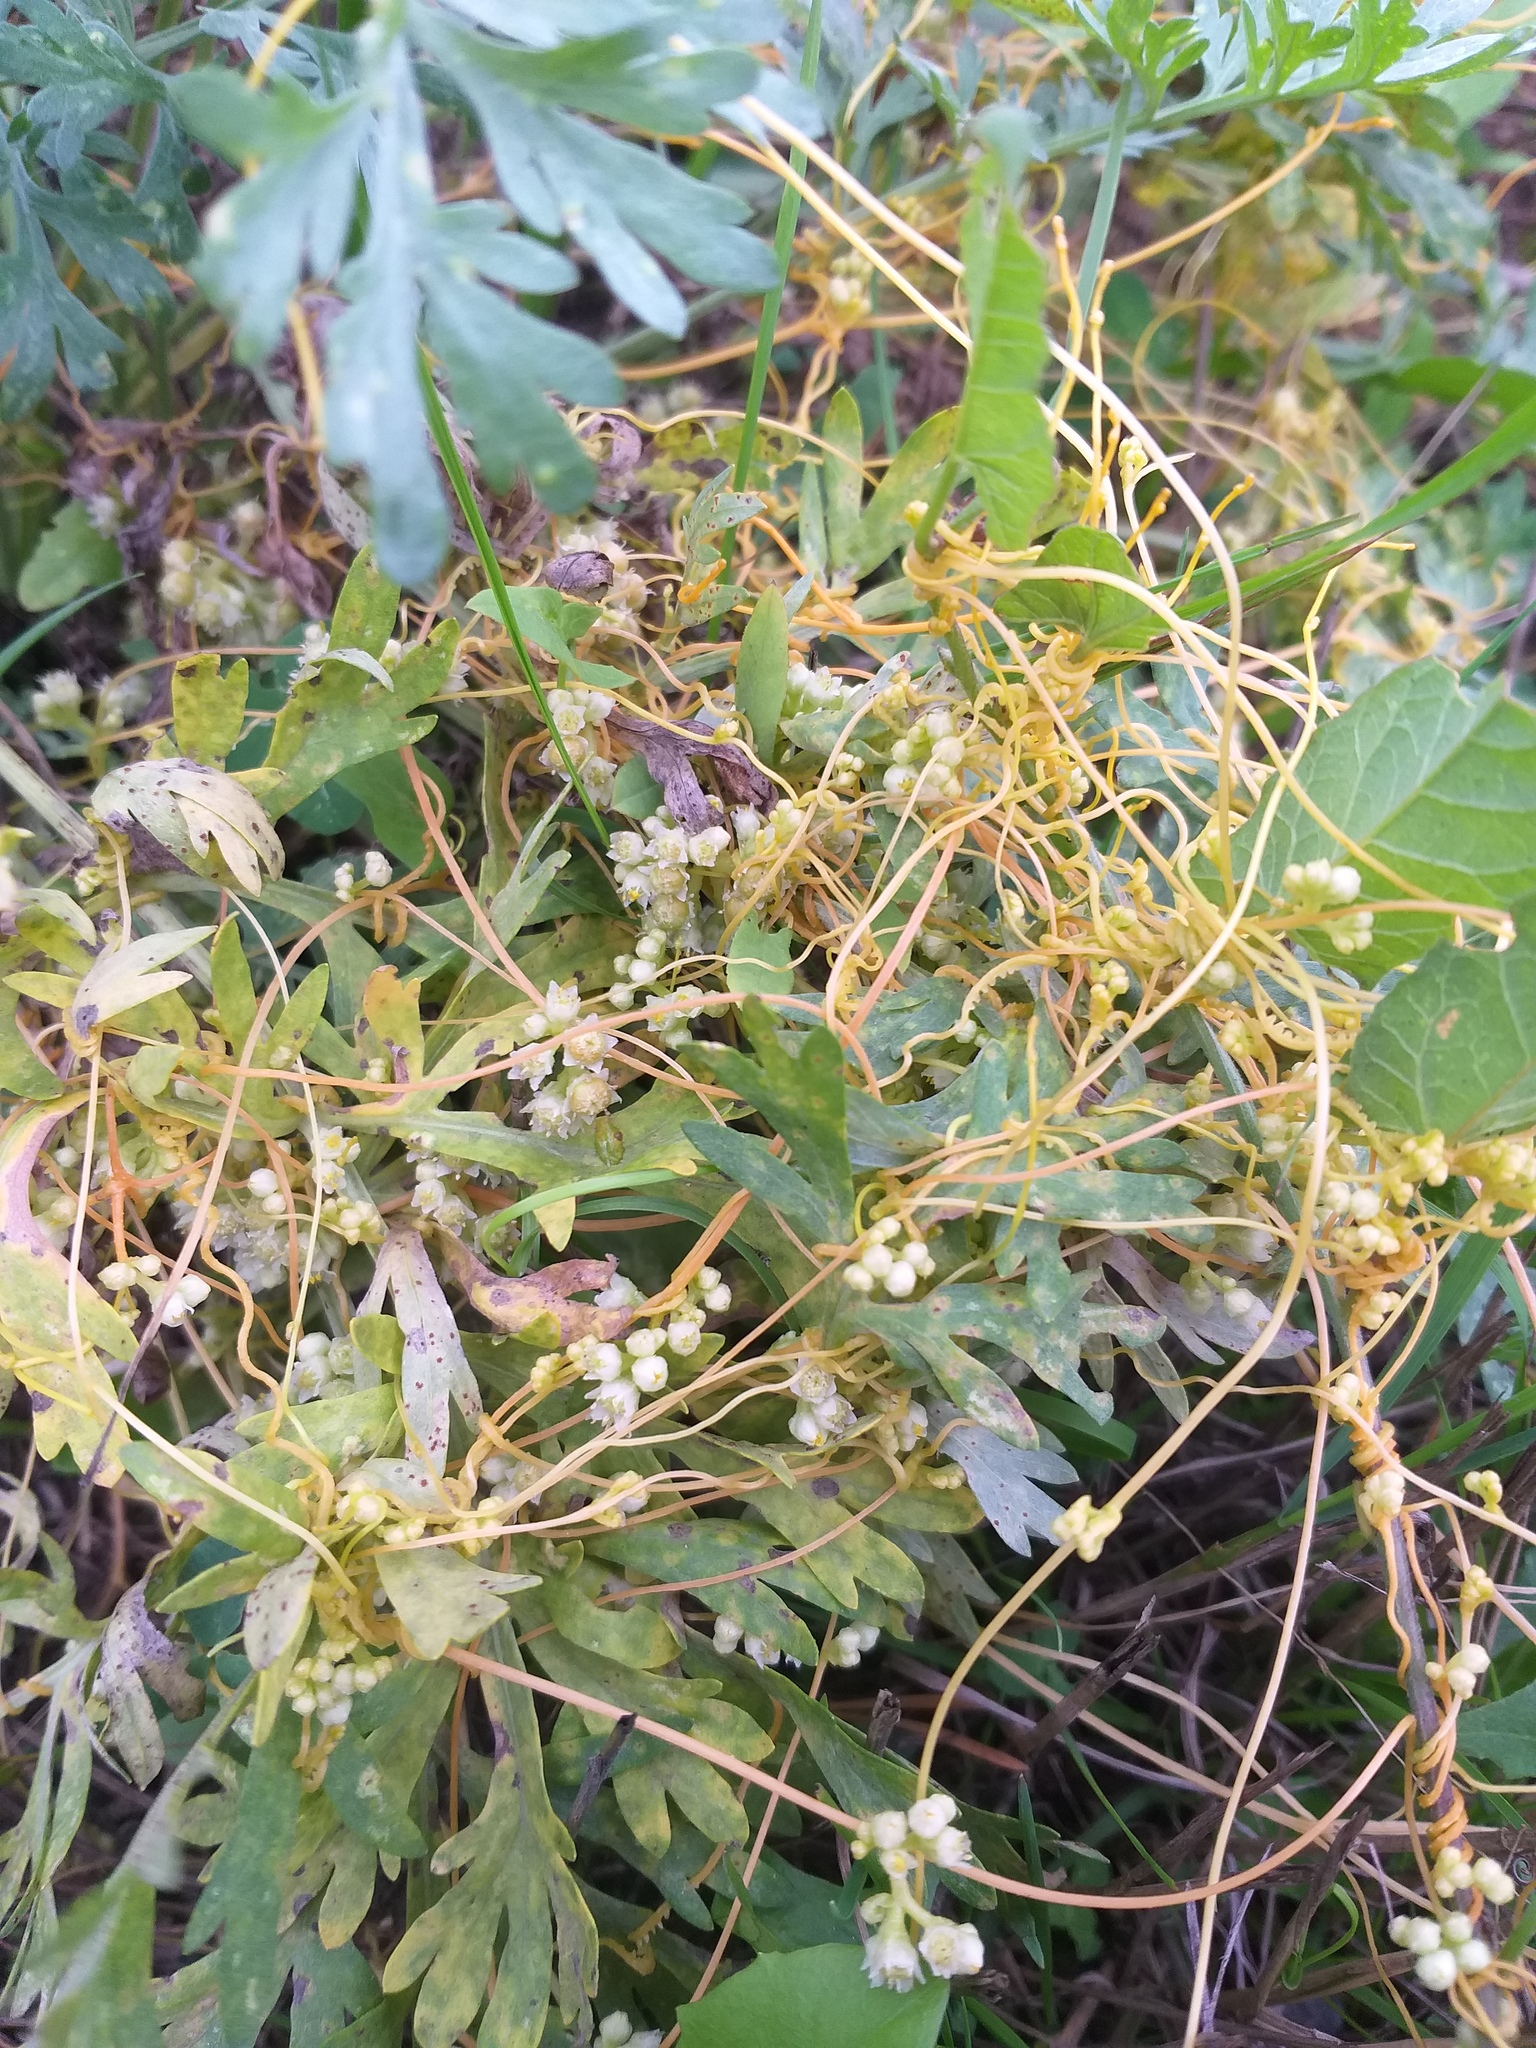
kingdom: Plantae
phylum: Tracheophyta
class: Magnoliopsida
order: Solanales
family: Convolvulaceae
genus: Cuscuta
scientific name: Cuscuta campestris
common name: Yellow dodder
